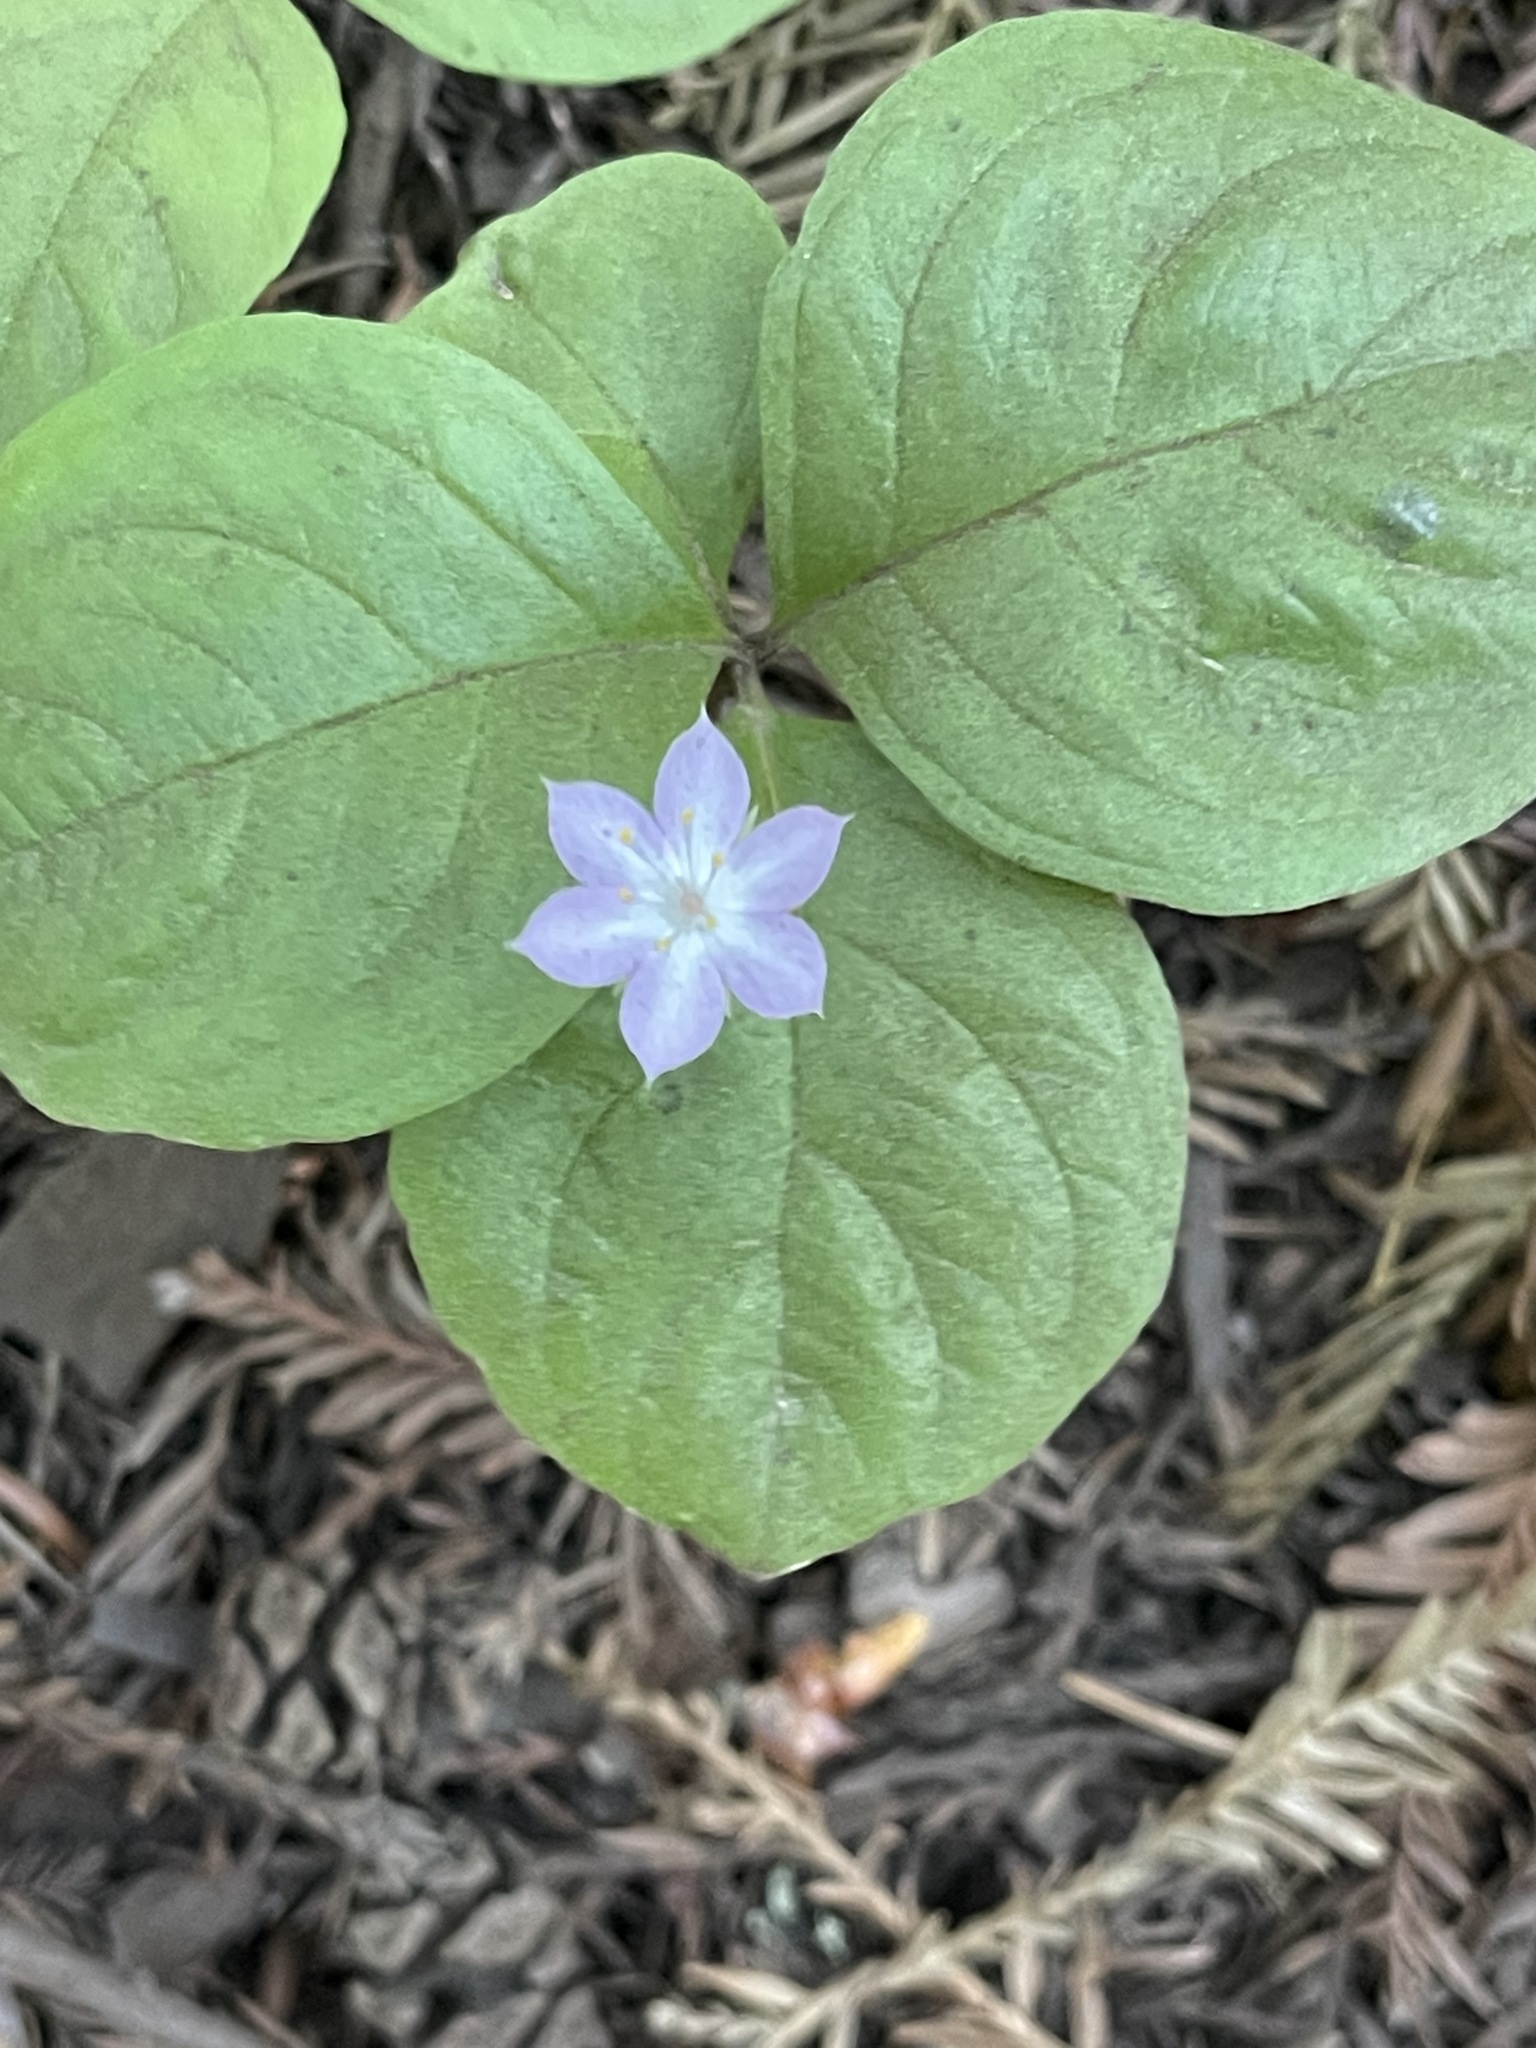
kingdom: Plantae
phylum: Tracheophyta
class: Magnoliopsida
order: Ericales
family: Primulaceae
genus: Lysimachia
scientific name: Lysimachia latifolia
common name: Pacific starflower
